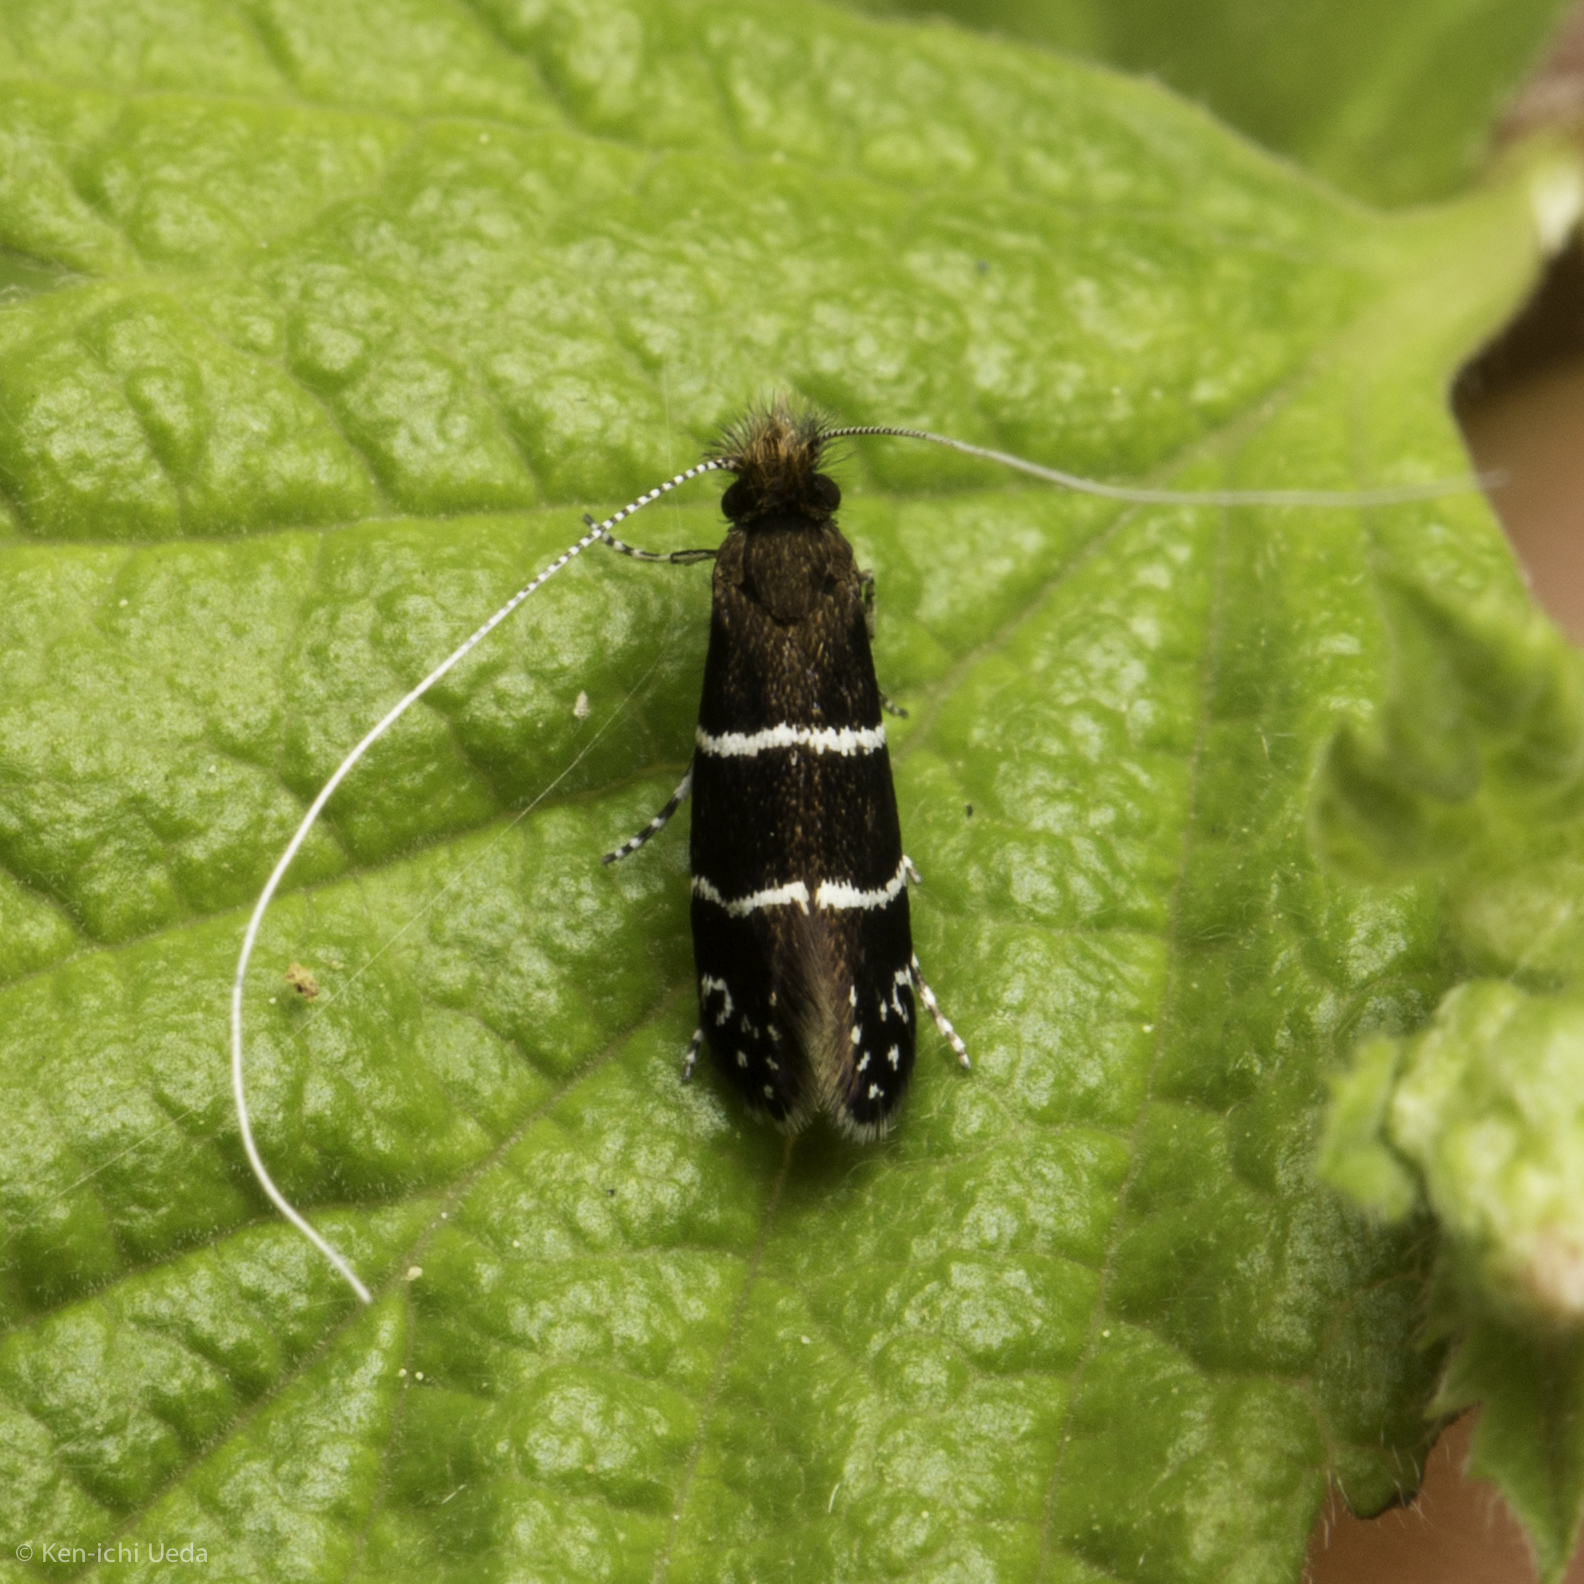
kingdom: Animalia
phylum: Arthropoda
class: Insecta
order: Lepidoptera
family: Adelidae
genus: Adela
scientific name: Adela septentrionella
